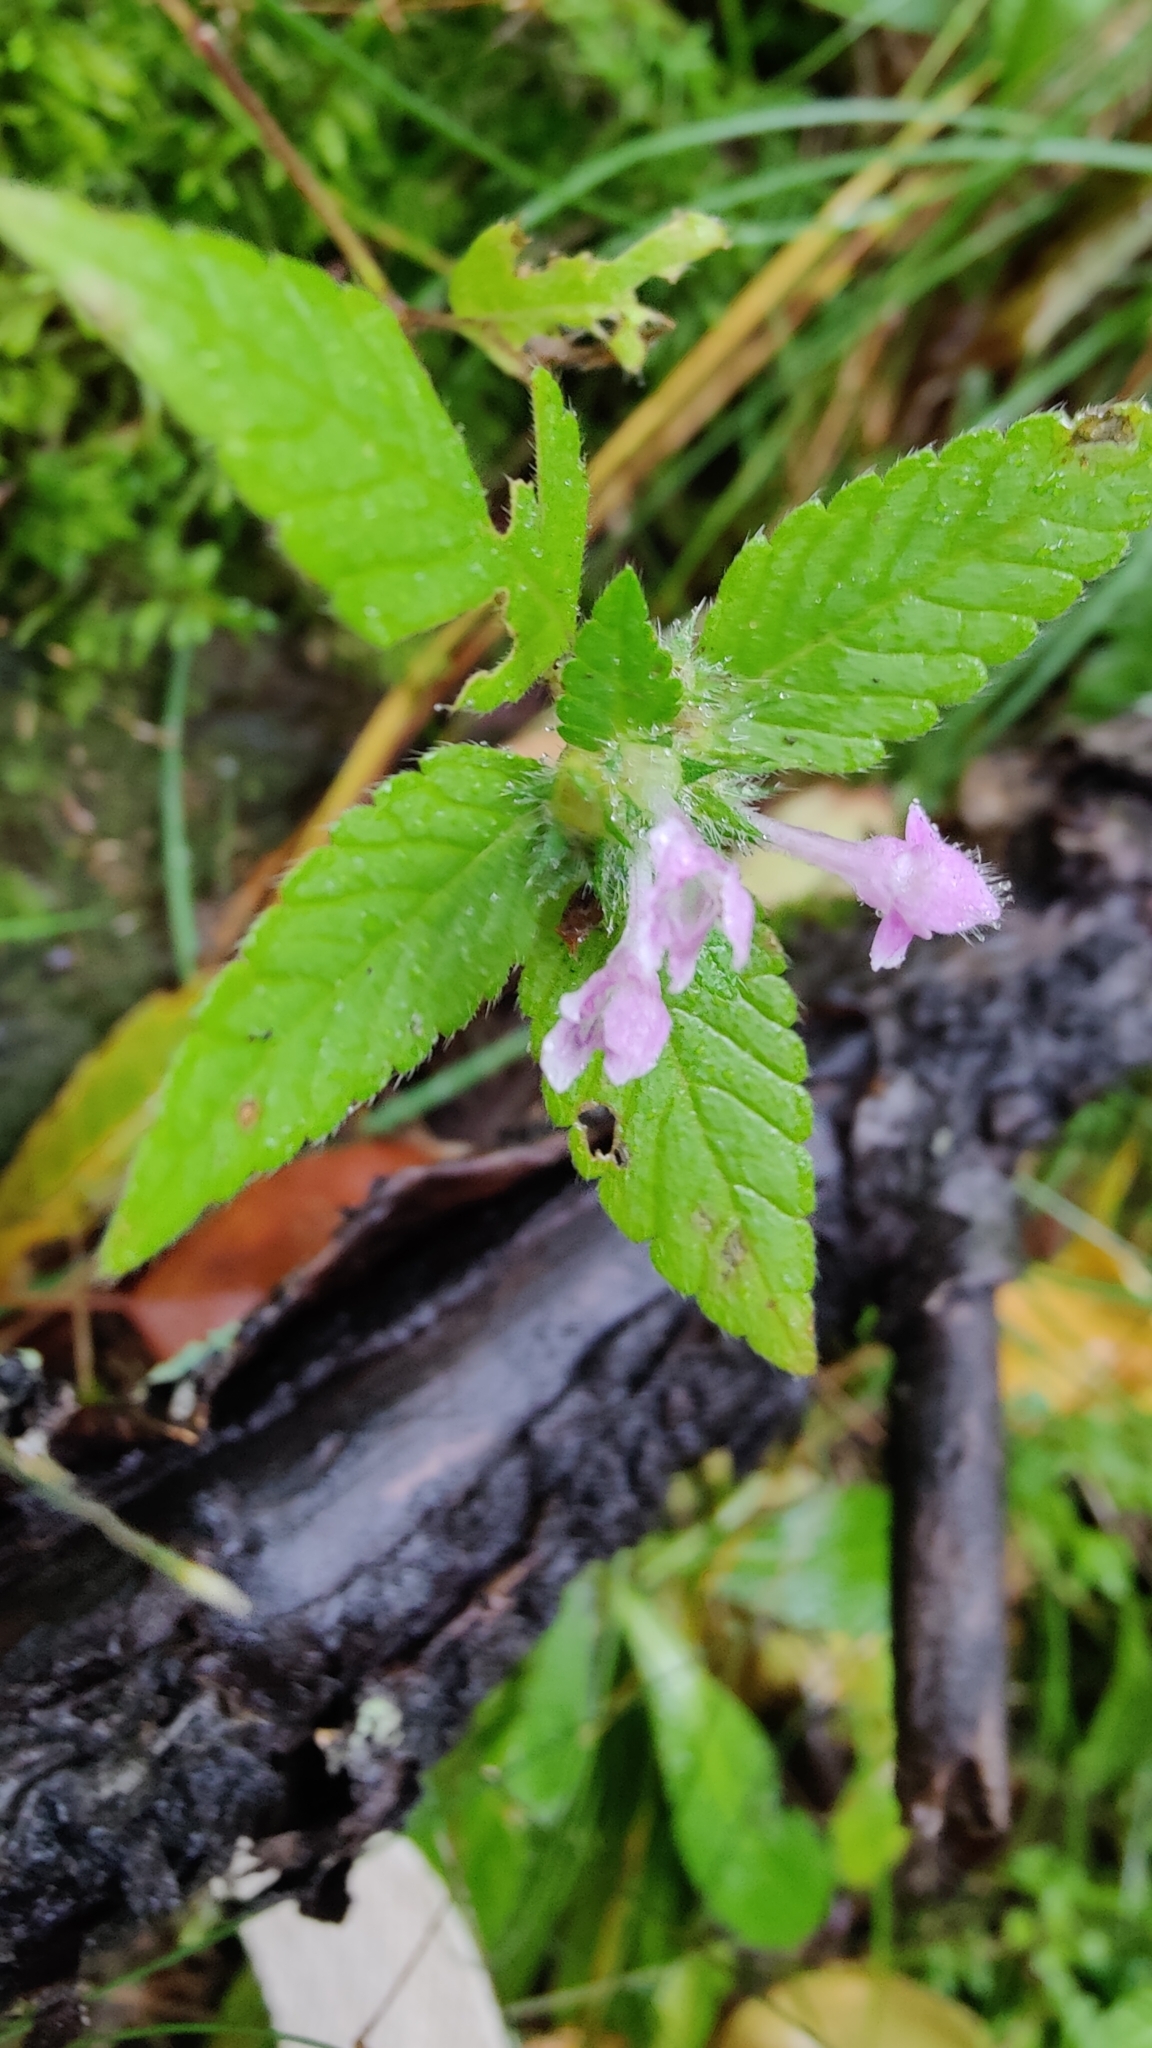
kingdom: Plantae
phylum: Tracheophyta
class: Magnoliopsida
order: Lamiales
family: Lamiaceae
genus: Galeopsis
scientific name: Galeopsis tetrahit
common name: Common hemp-nettle
